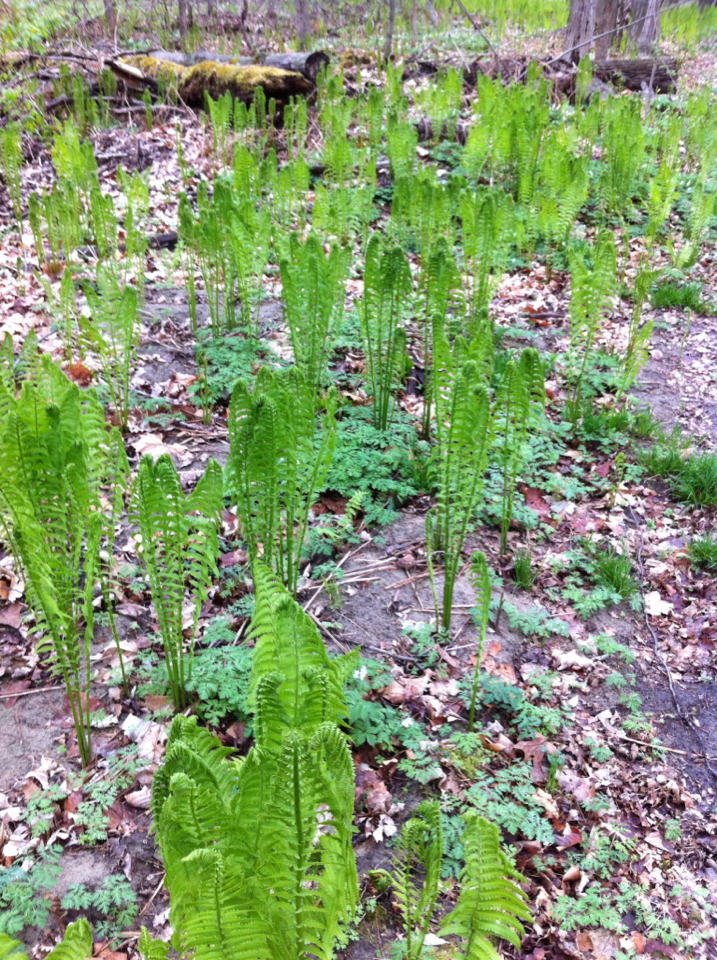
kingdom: Plantae
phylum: Tracheophyta
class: Polypodiopsida
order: Polypodiales
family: Onocleaceae
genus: Matteuccia
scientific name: Matteuccia struthiopteris
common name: Ostrich fern
